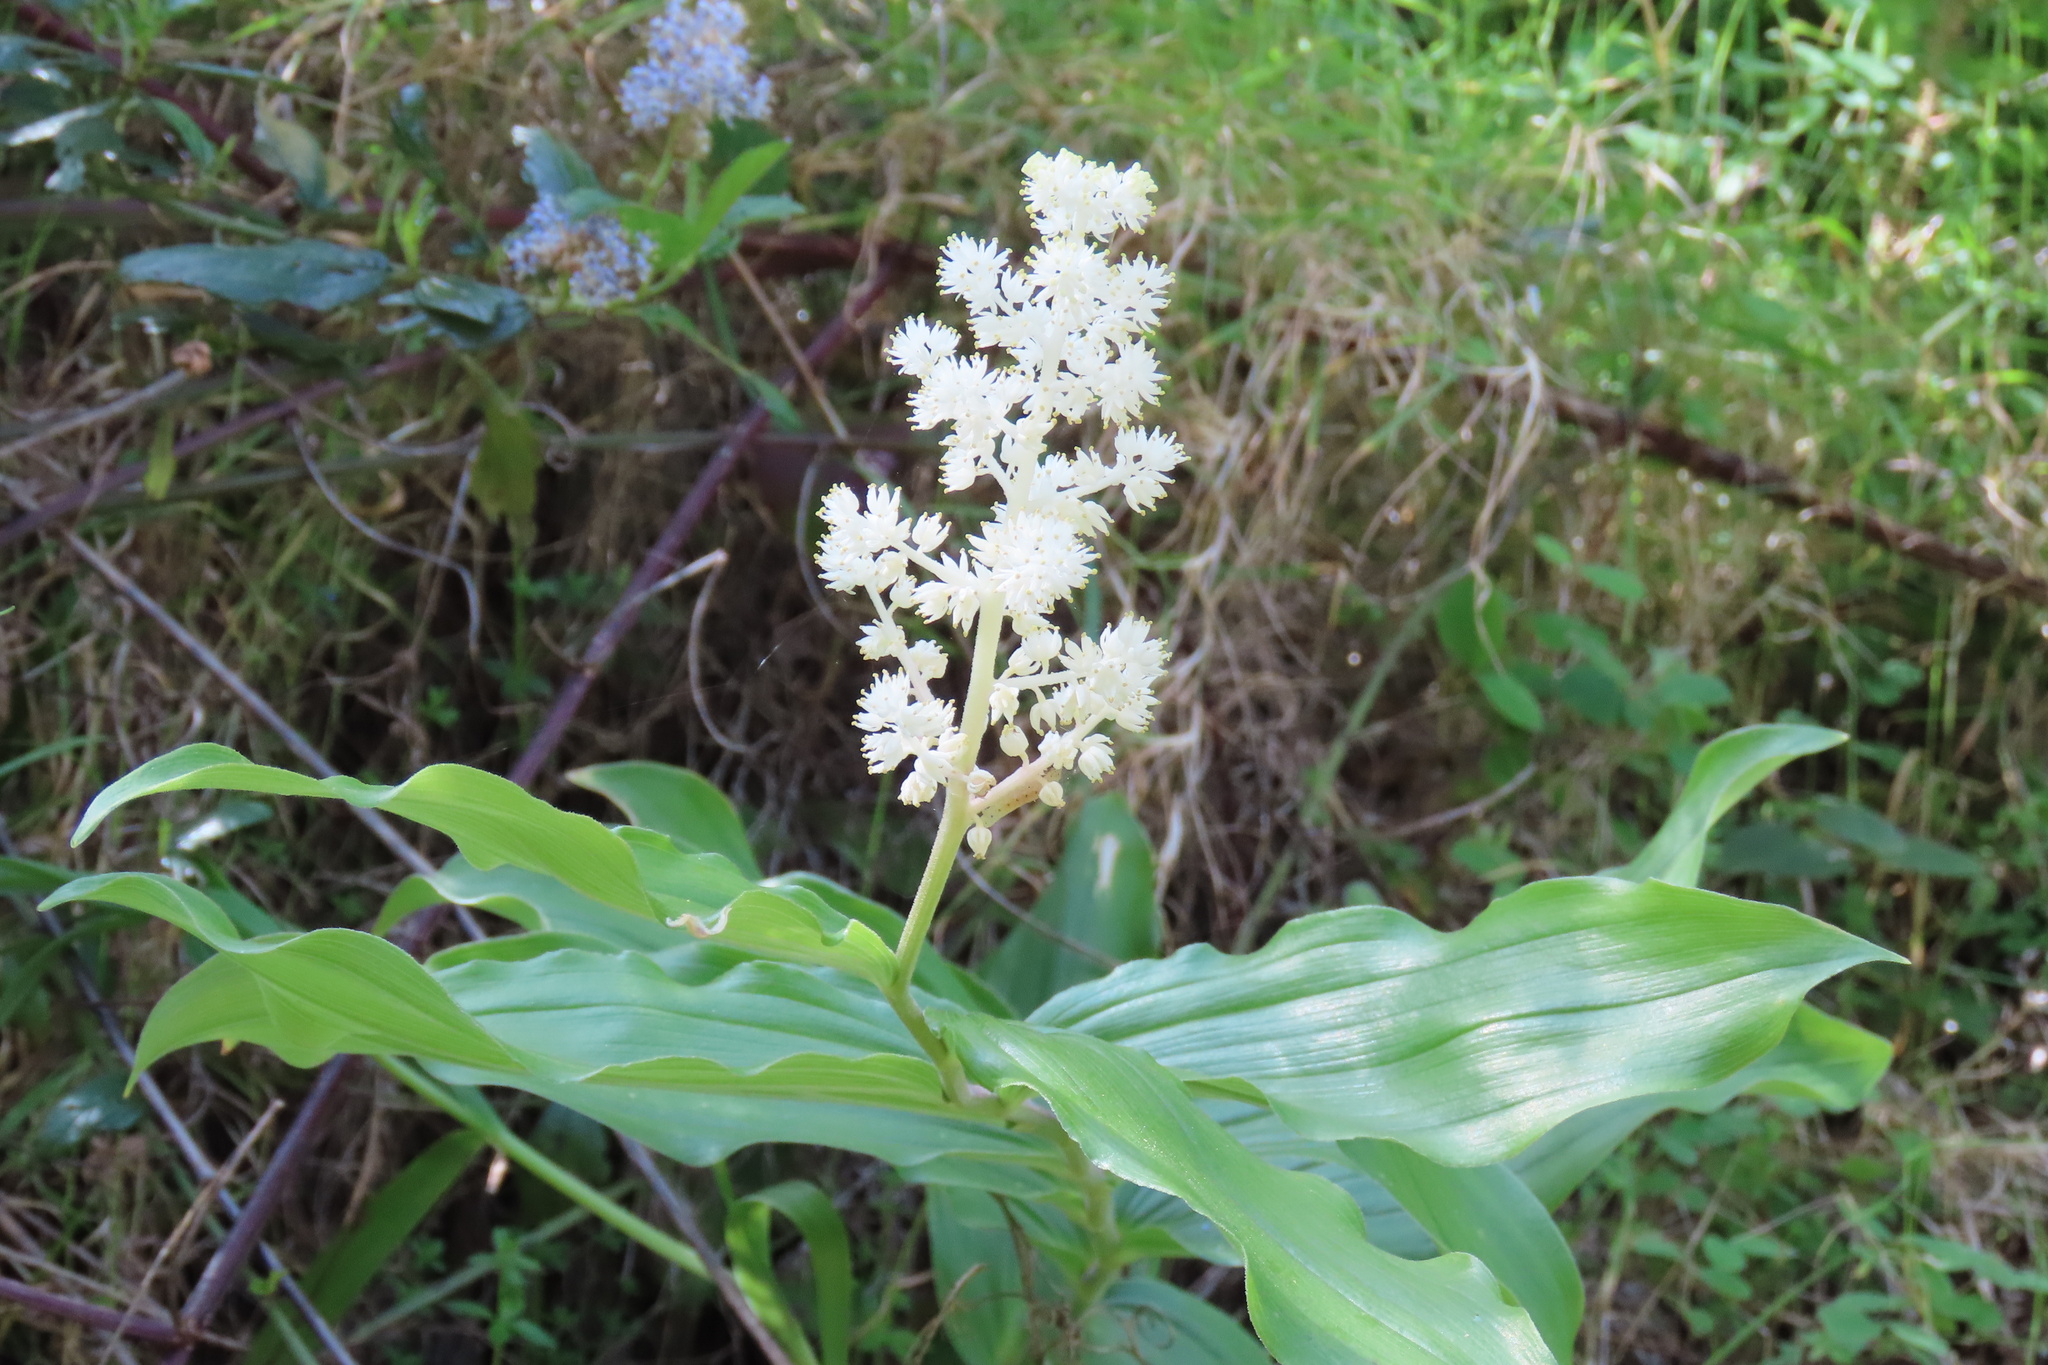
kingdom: Plantae
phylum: Tracheophyta
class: Liliopsida
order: Asparagales
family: Asparagaceae
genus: Maianthemum
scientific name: Maianthemum racemosum
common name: False spikenard
